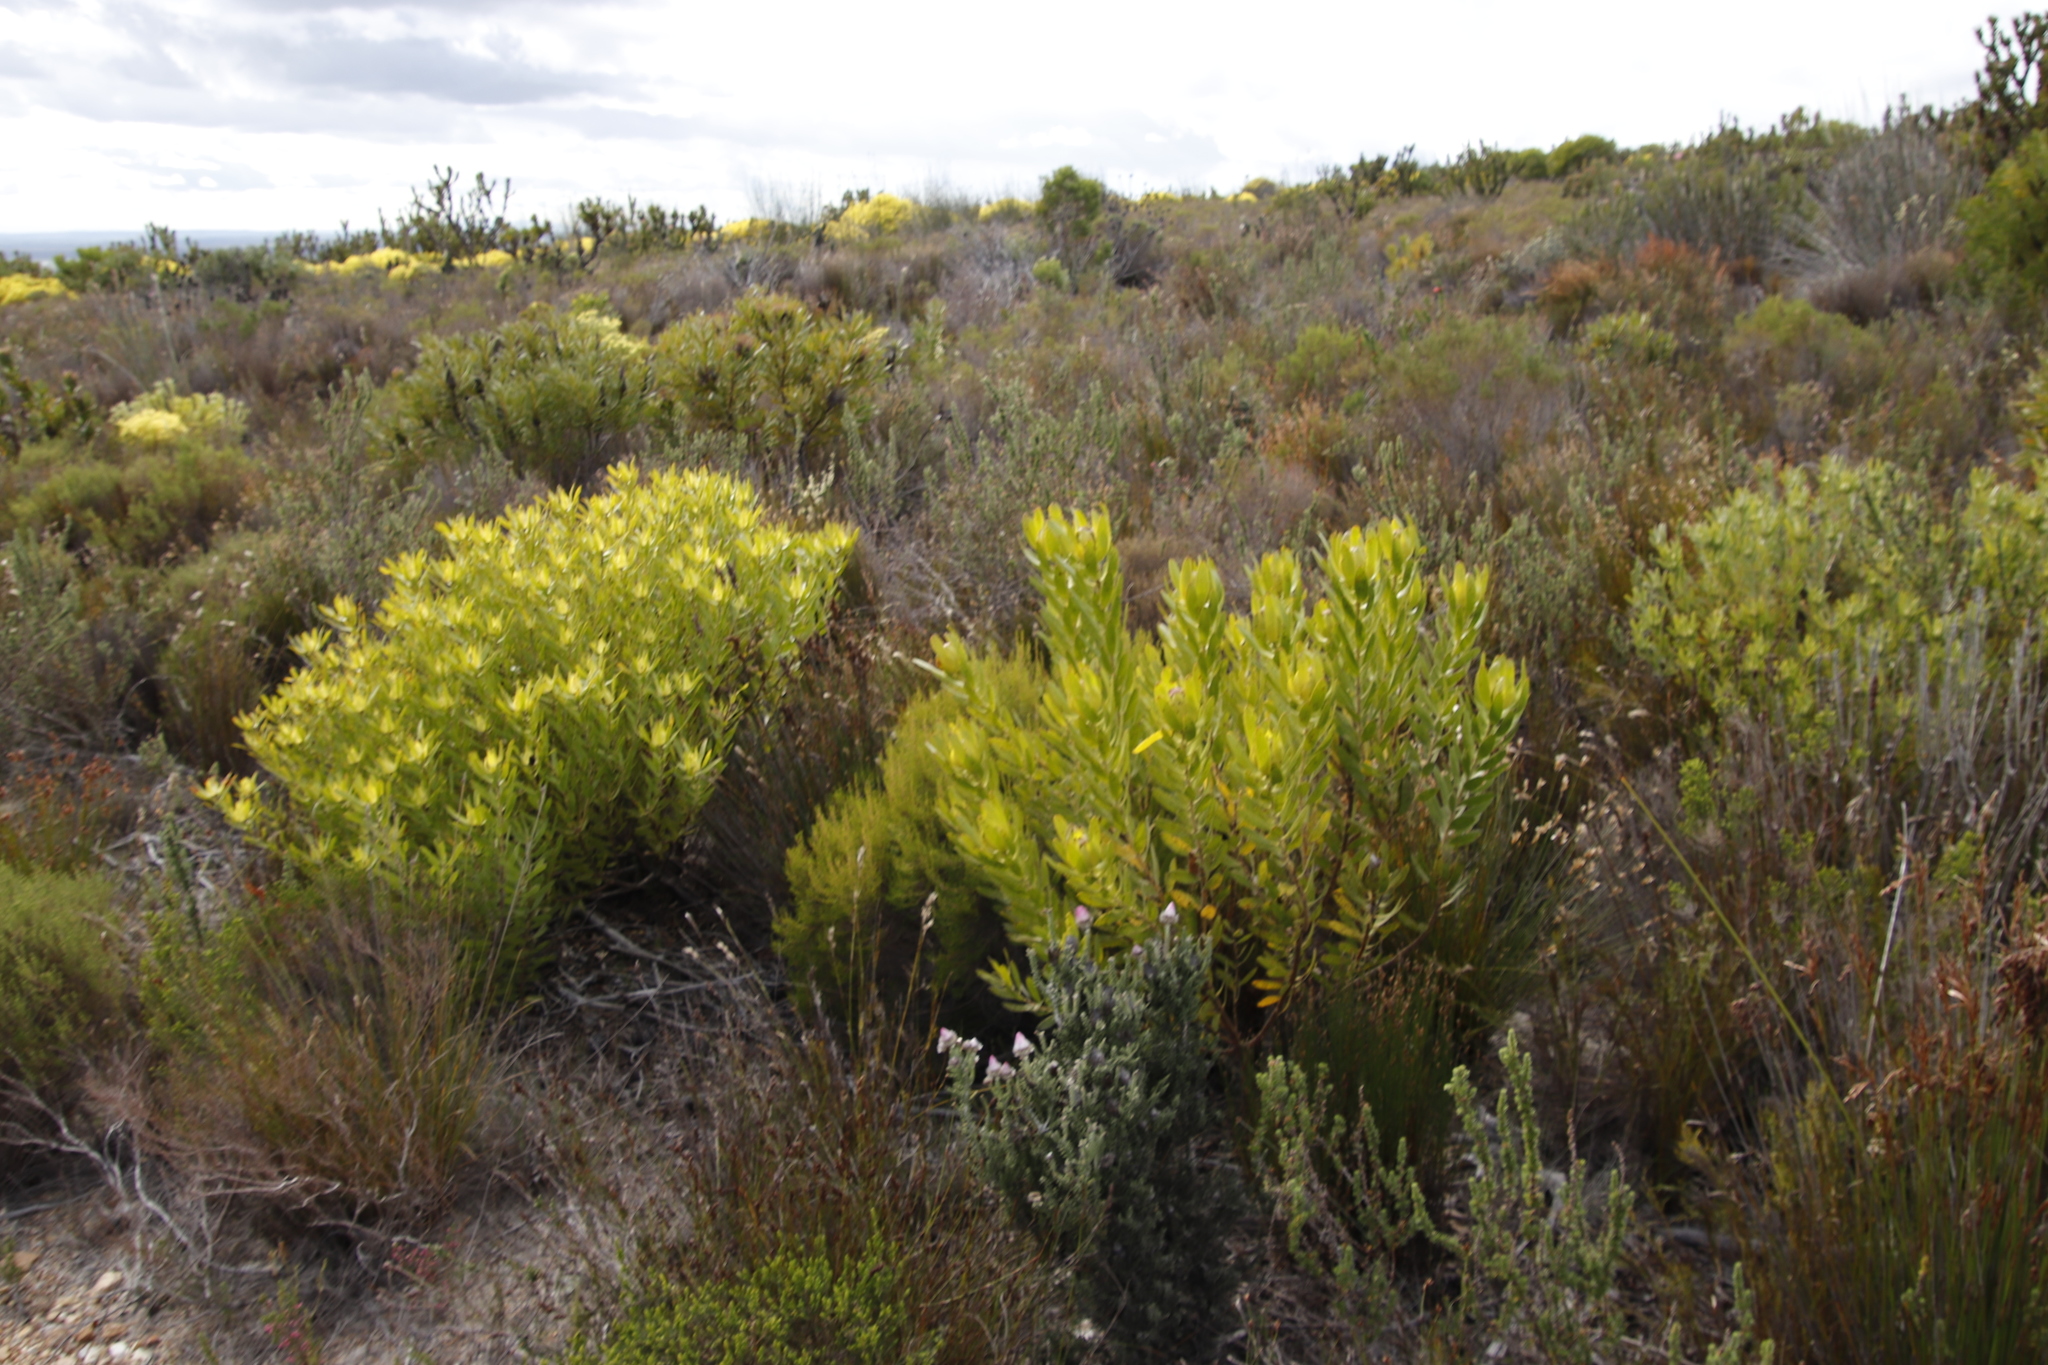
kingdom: Plantae
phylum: Tracheophyta
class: Magnoliopsida
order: Proteales
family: Proteaceae
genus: Leucadendron
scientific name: Leucadendron laureolum
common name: Golden sunshinebush
